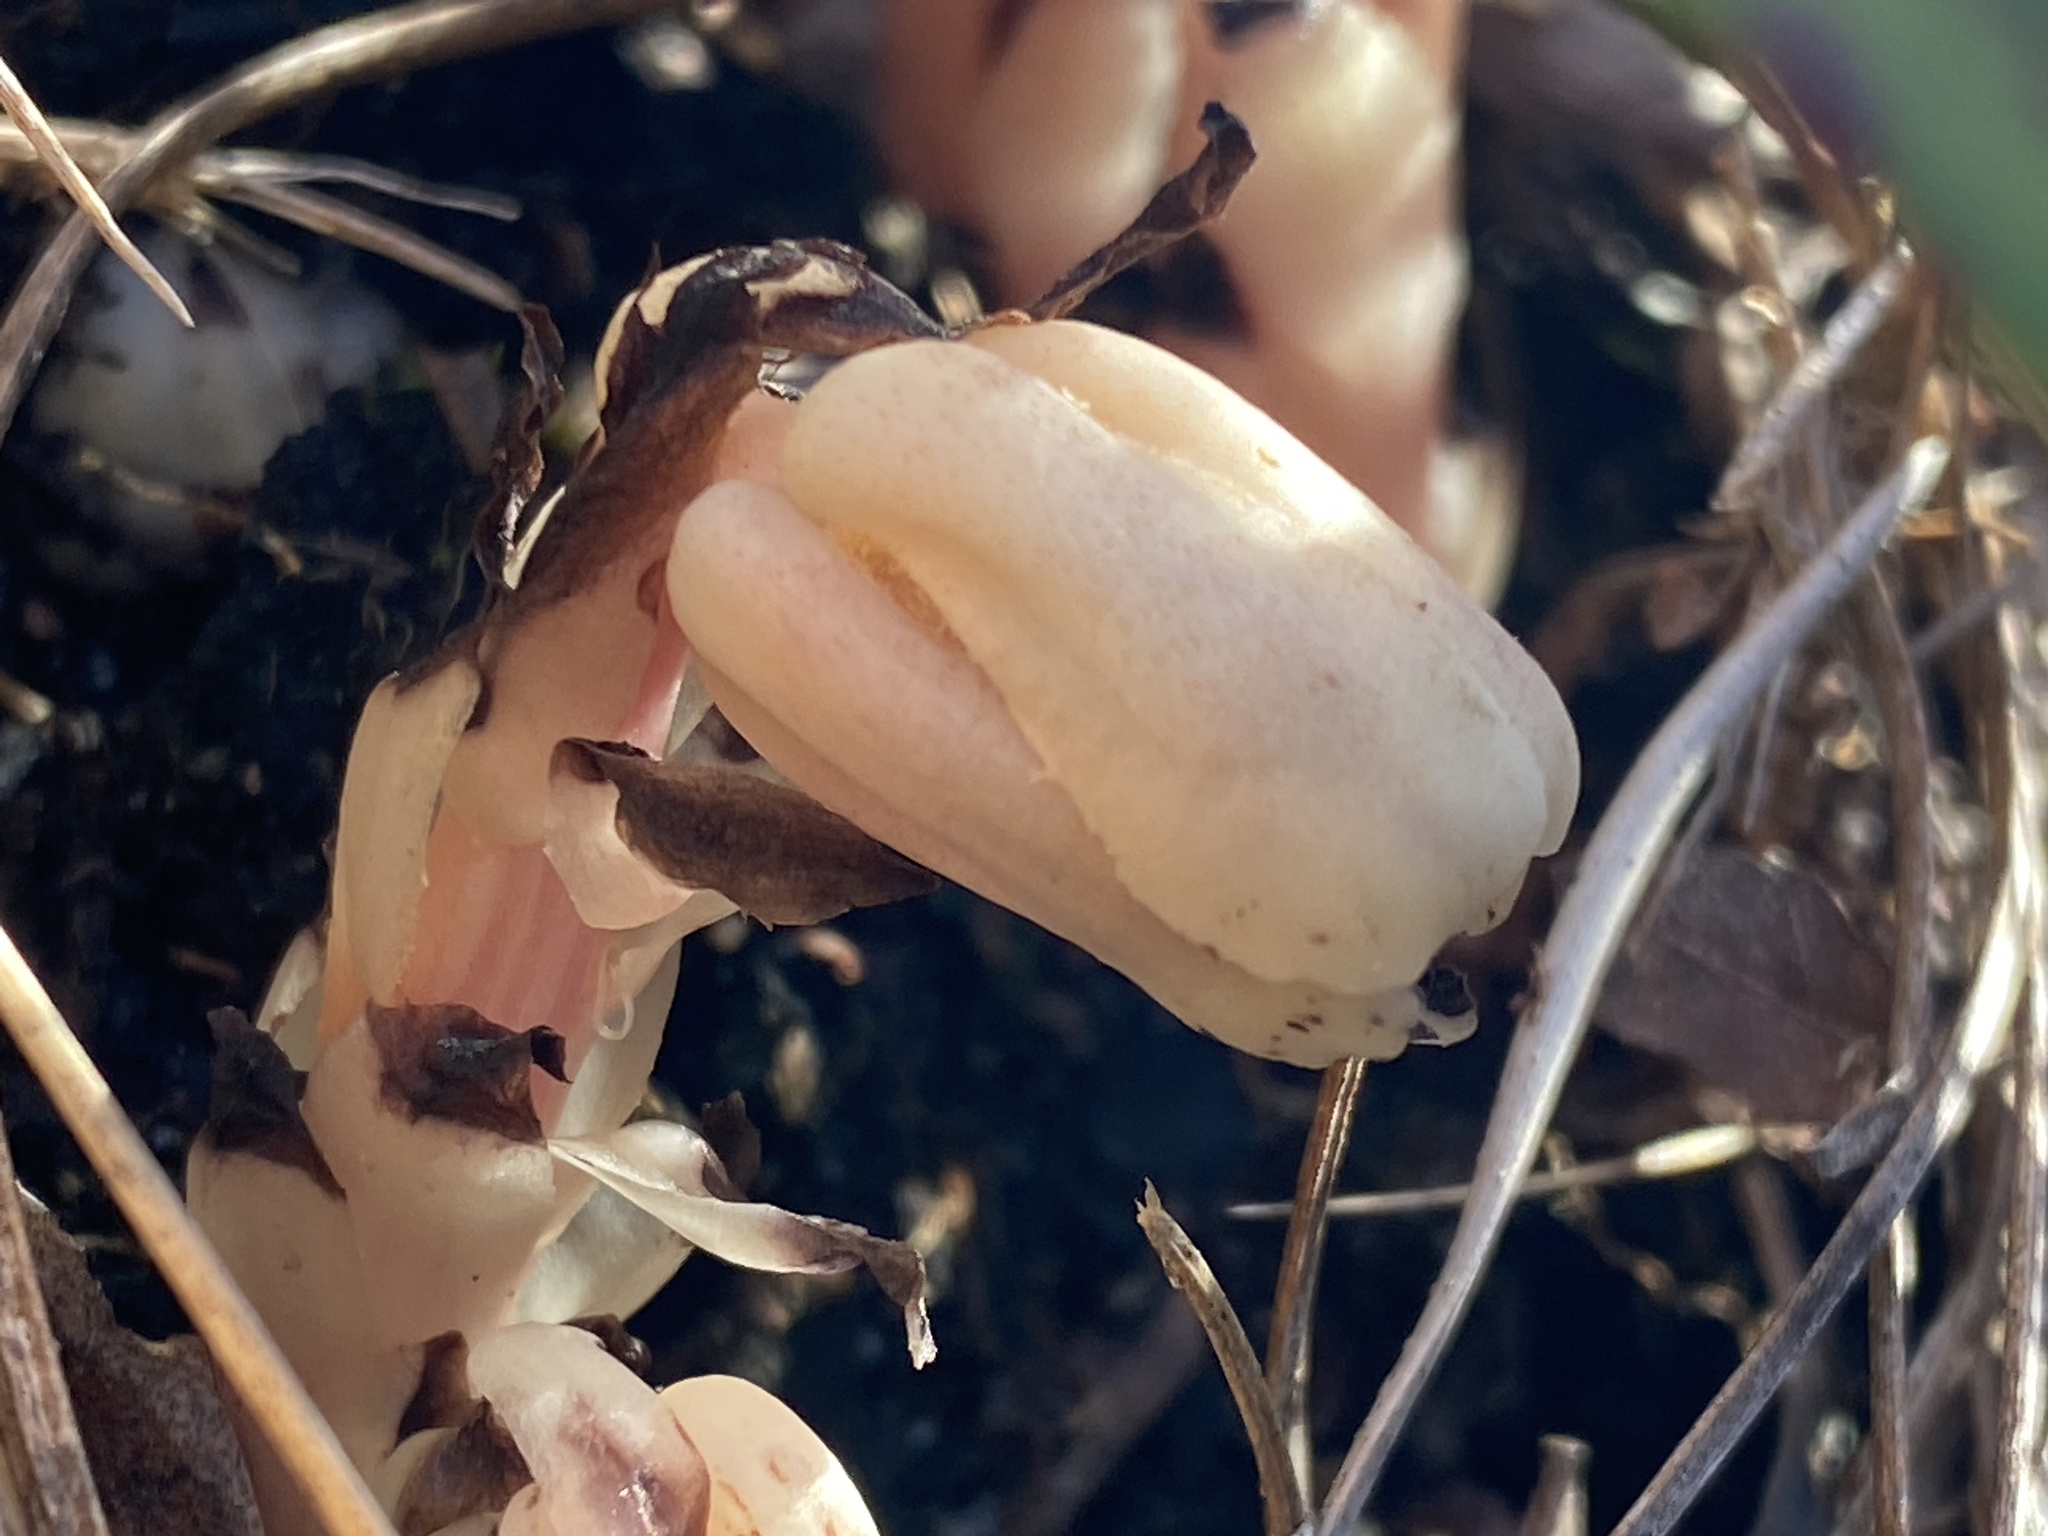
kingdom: Plantae
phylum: Tracheophyta
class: Magnoliopsida
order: Ericales
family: Ericaceae
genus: Monotropa
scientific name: Monotropa uniflora
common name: Convulsion root
